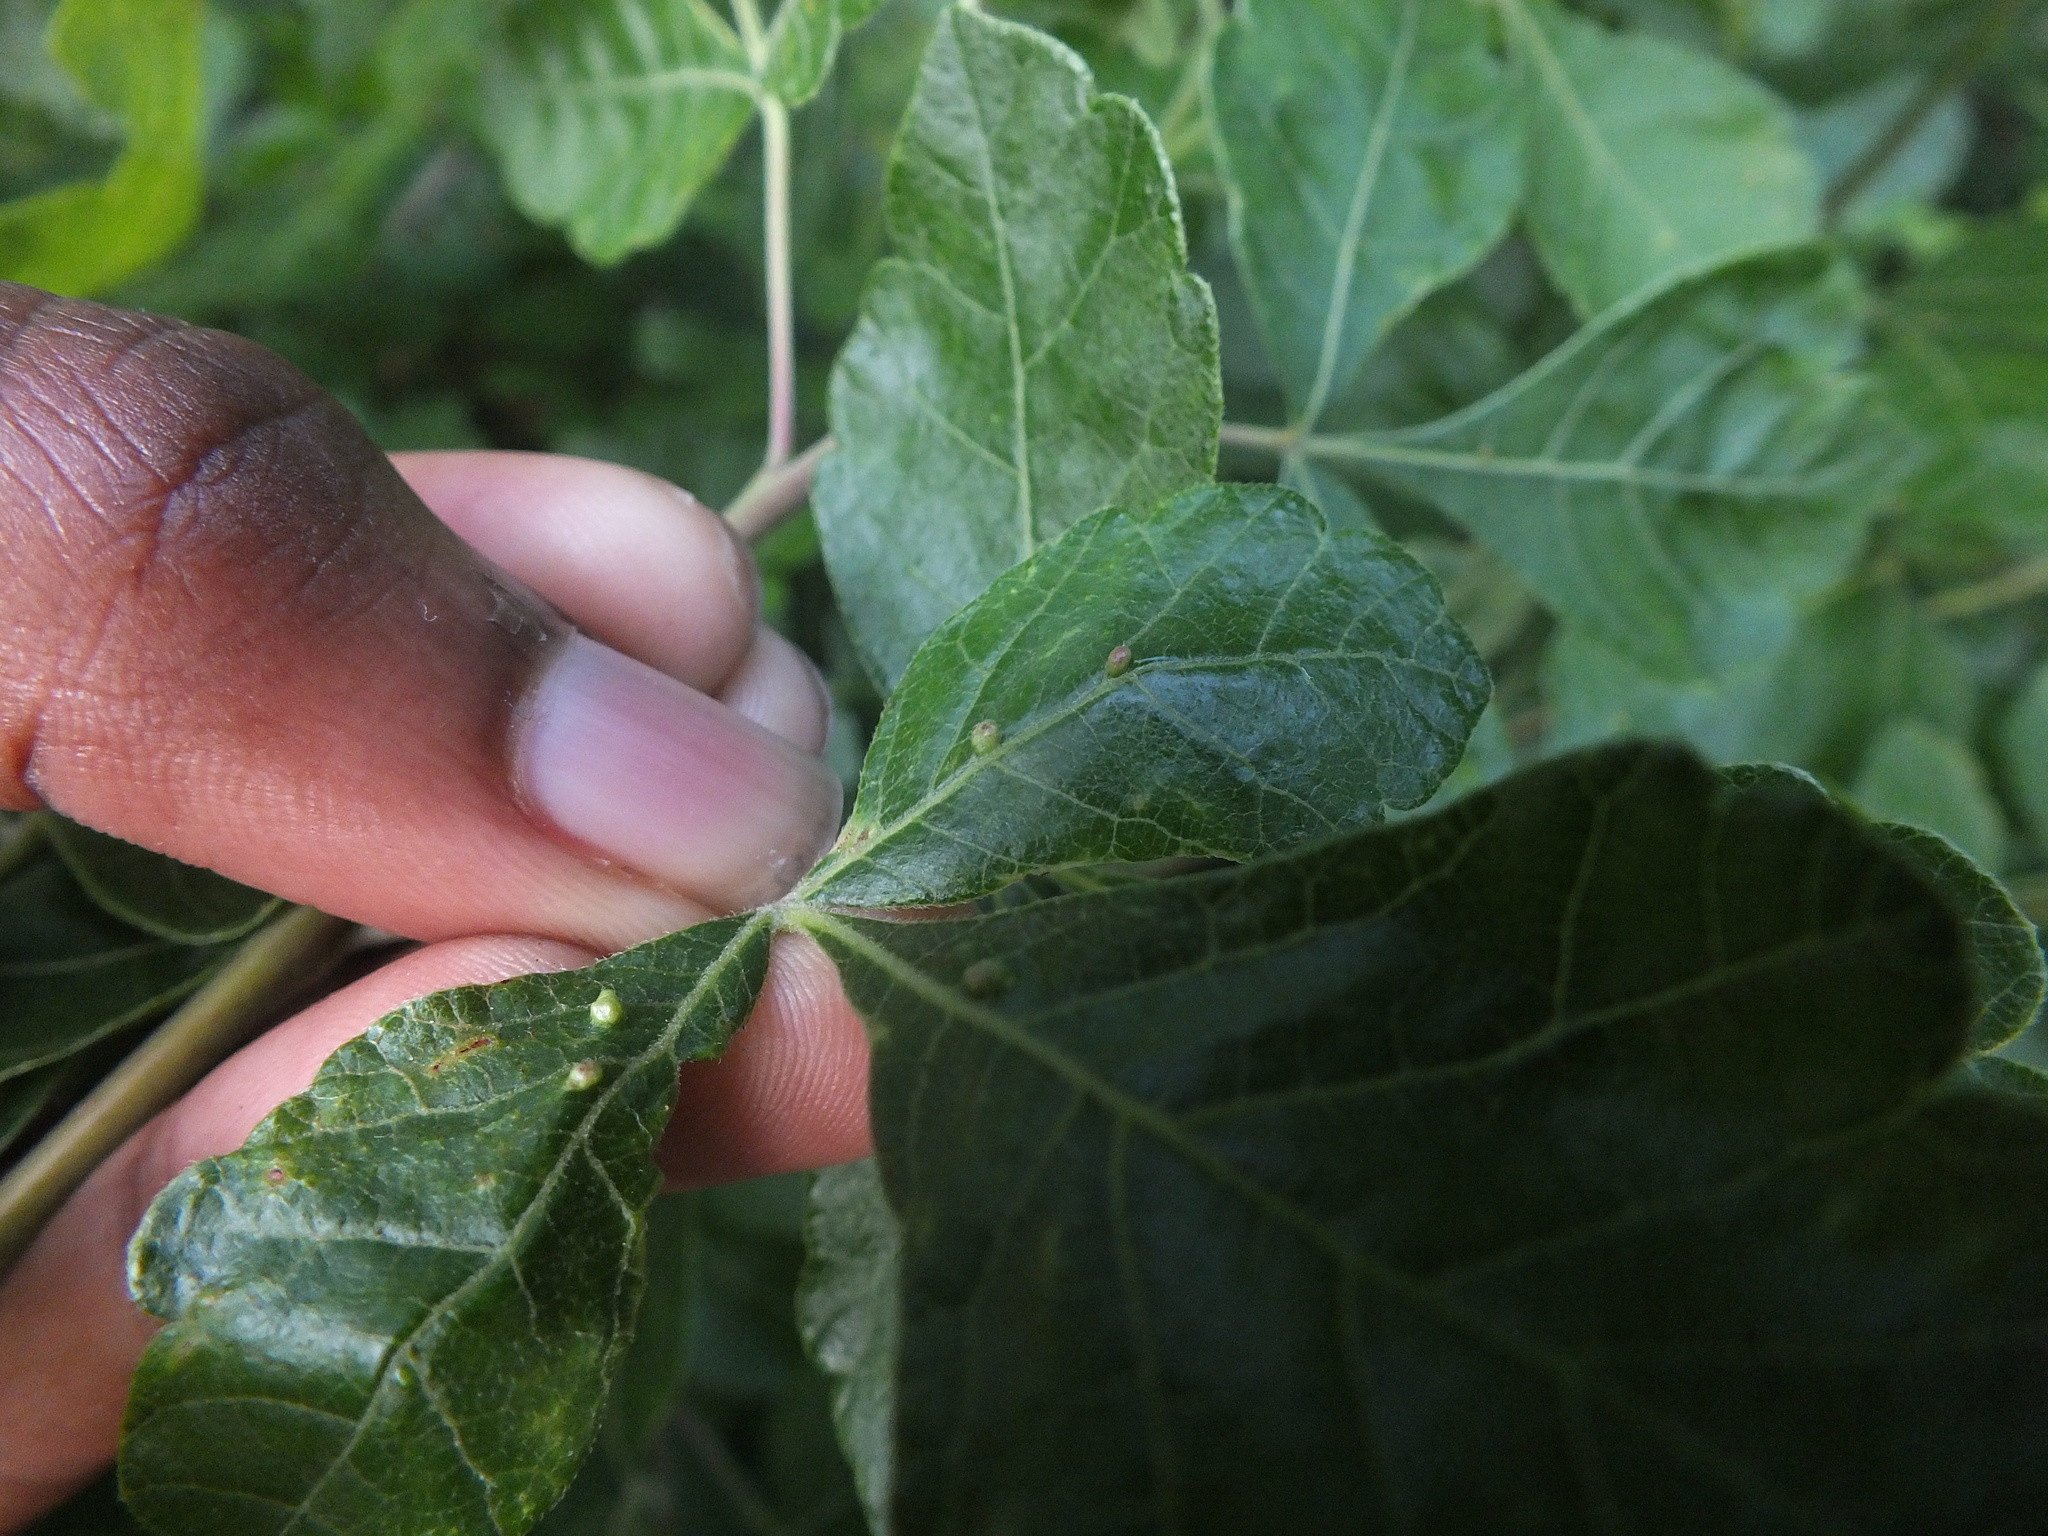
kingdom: Animalia
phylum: Arthropoda
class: Arachnida
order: Trombidiformes
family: Eriophyidae
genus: Aculops
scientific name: Aculops
